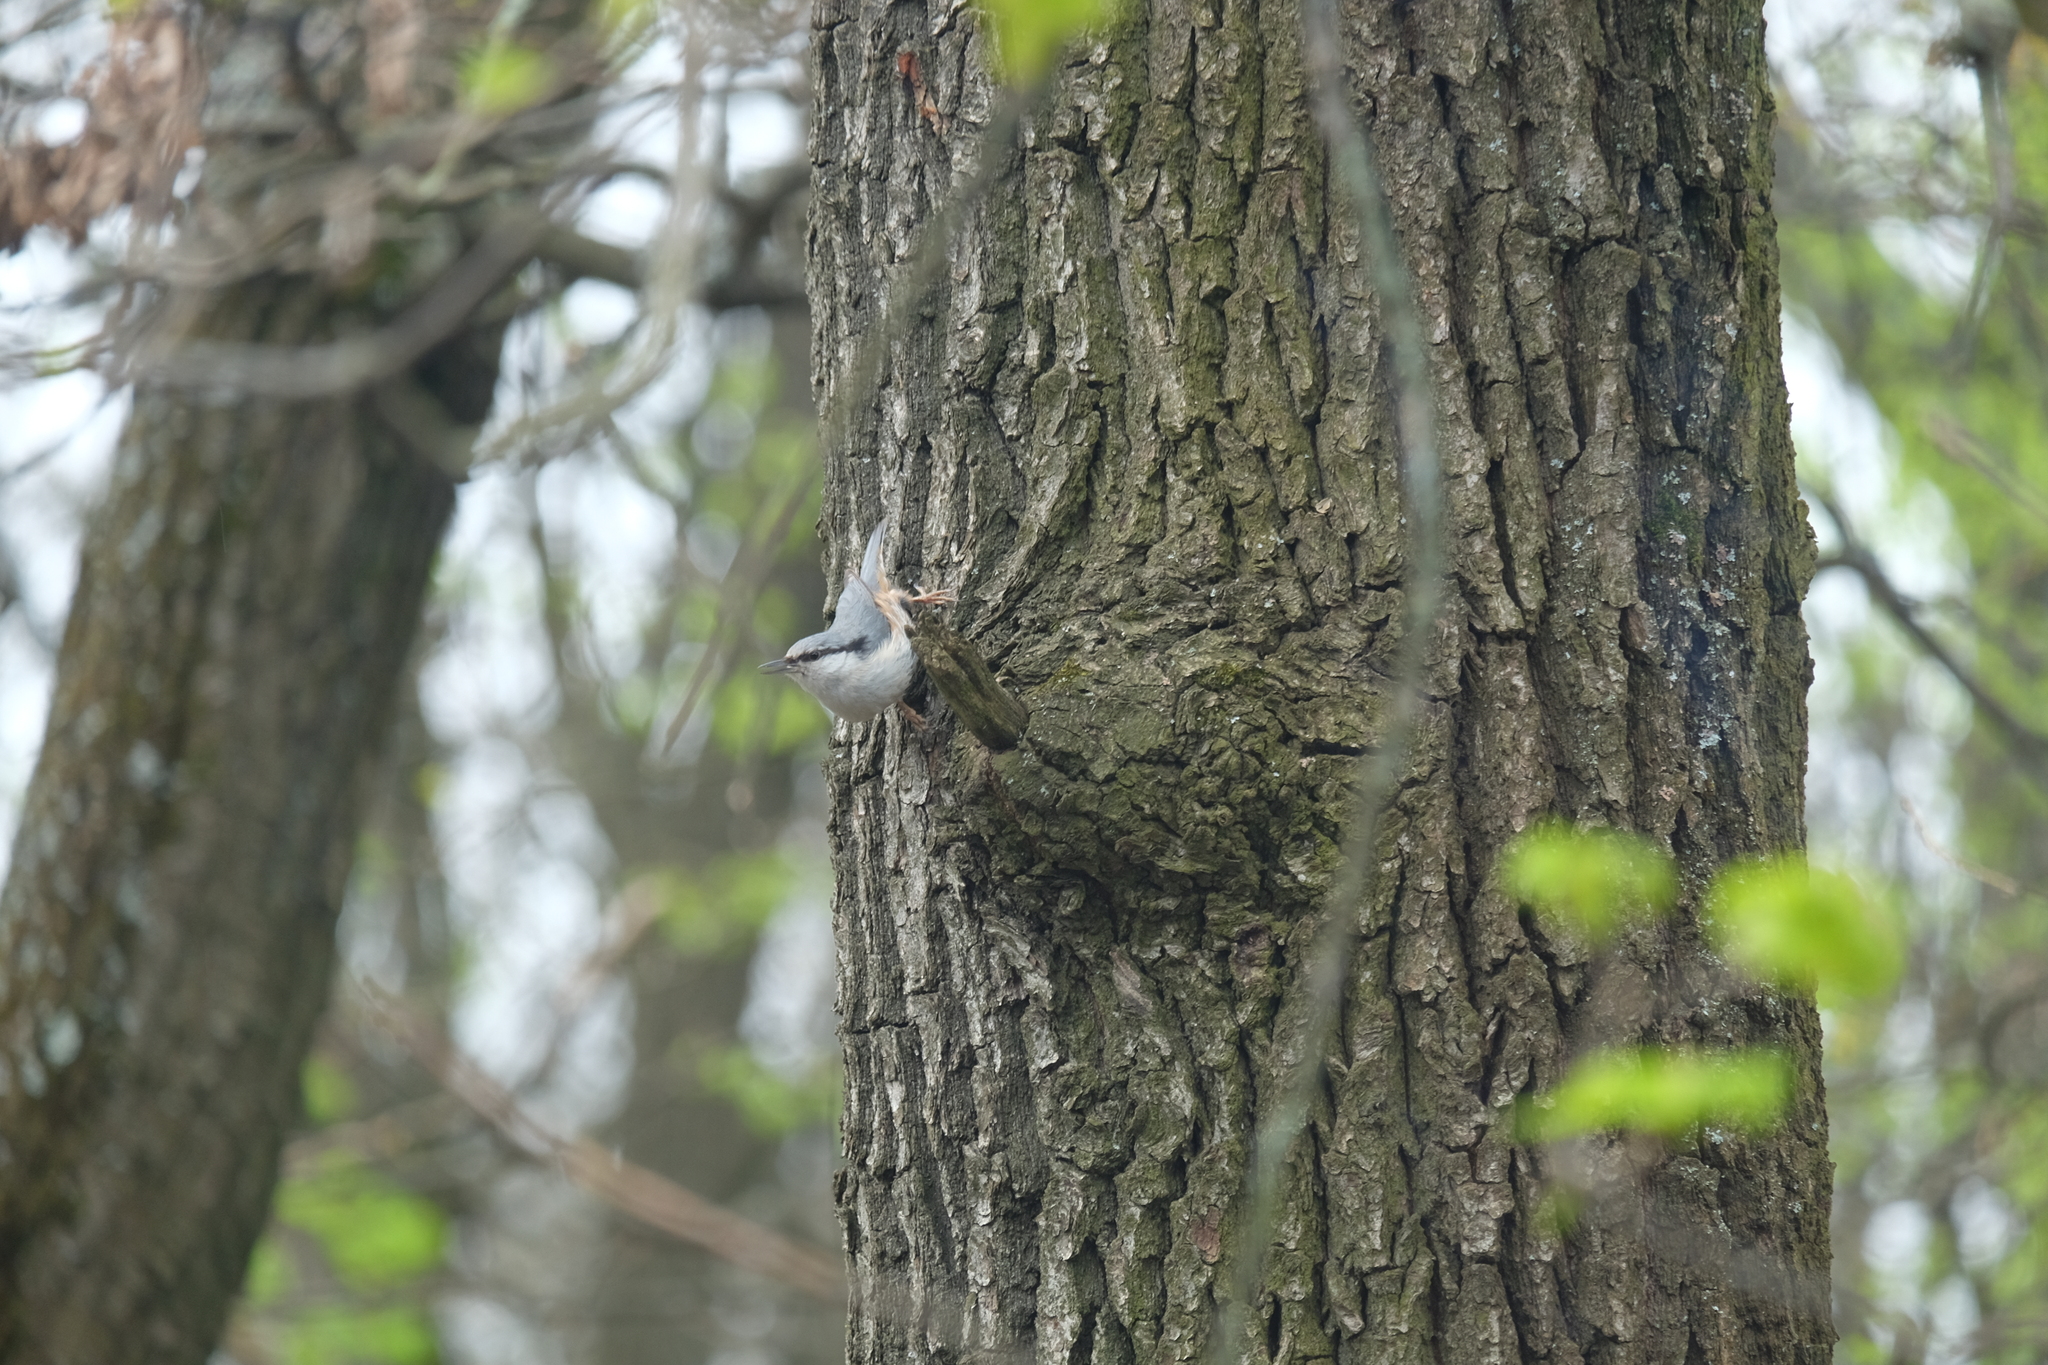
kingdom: Animalia
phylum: Chordata
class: Aves
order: Passeriformes
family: Sittidae
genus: Sitta
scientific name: Sitta europaea
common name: Eurasian nuthatch
